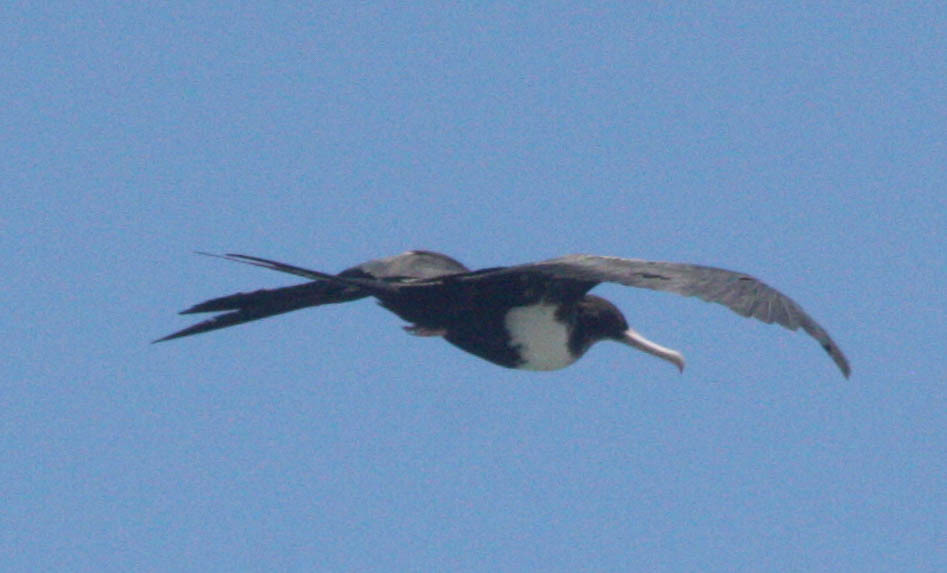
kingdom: Animalia
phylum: Chordata
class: Aves
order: Suliformes
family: Fregatidae
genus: Fregata
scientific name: Fregata minor
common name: Great frigatebird
